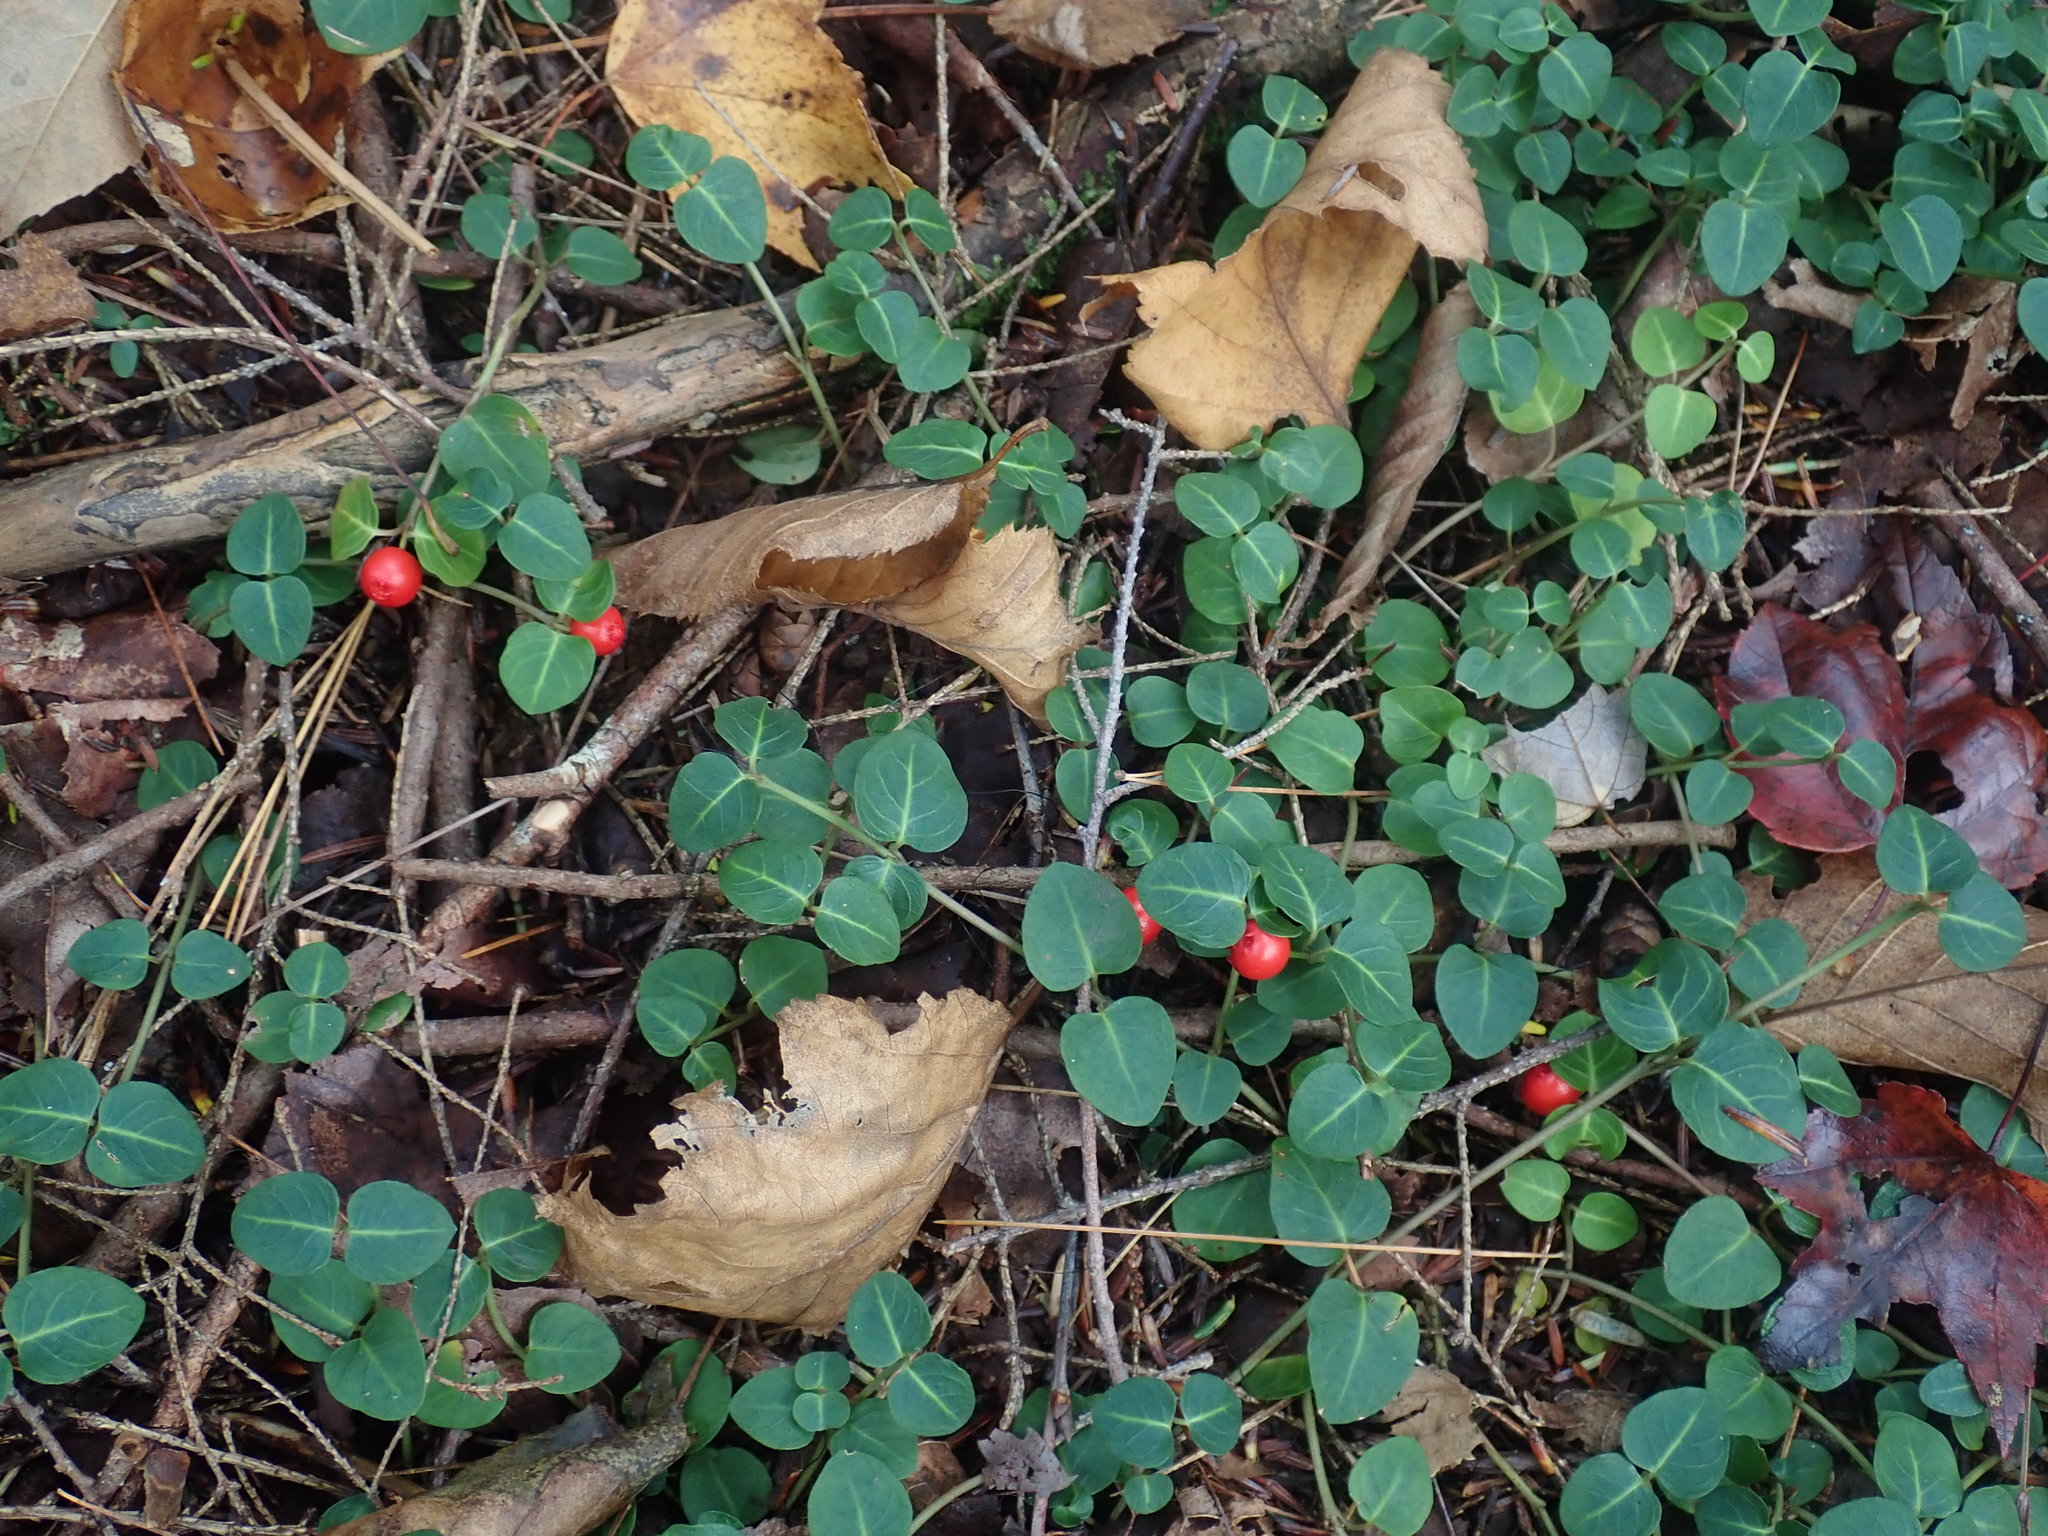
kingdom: Plantae
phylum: Tracheophyta
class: Magnoliopsida
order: Gentianales
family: Rubiaceae
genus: Mitchella
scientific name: Mitchella repens
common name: Partridge-berry
